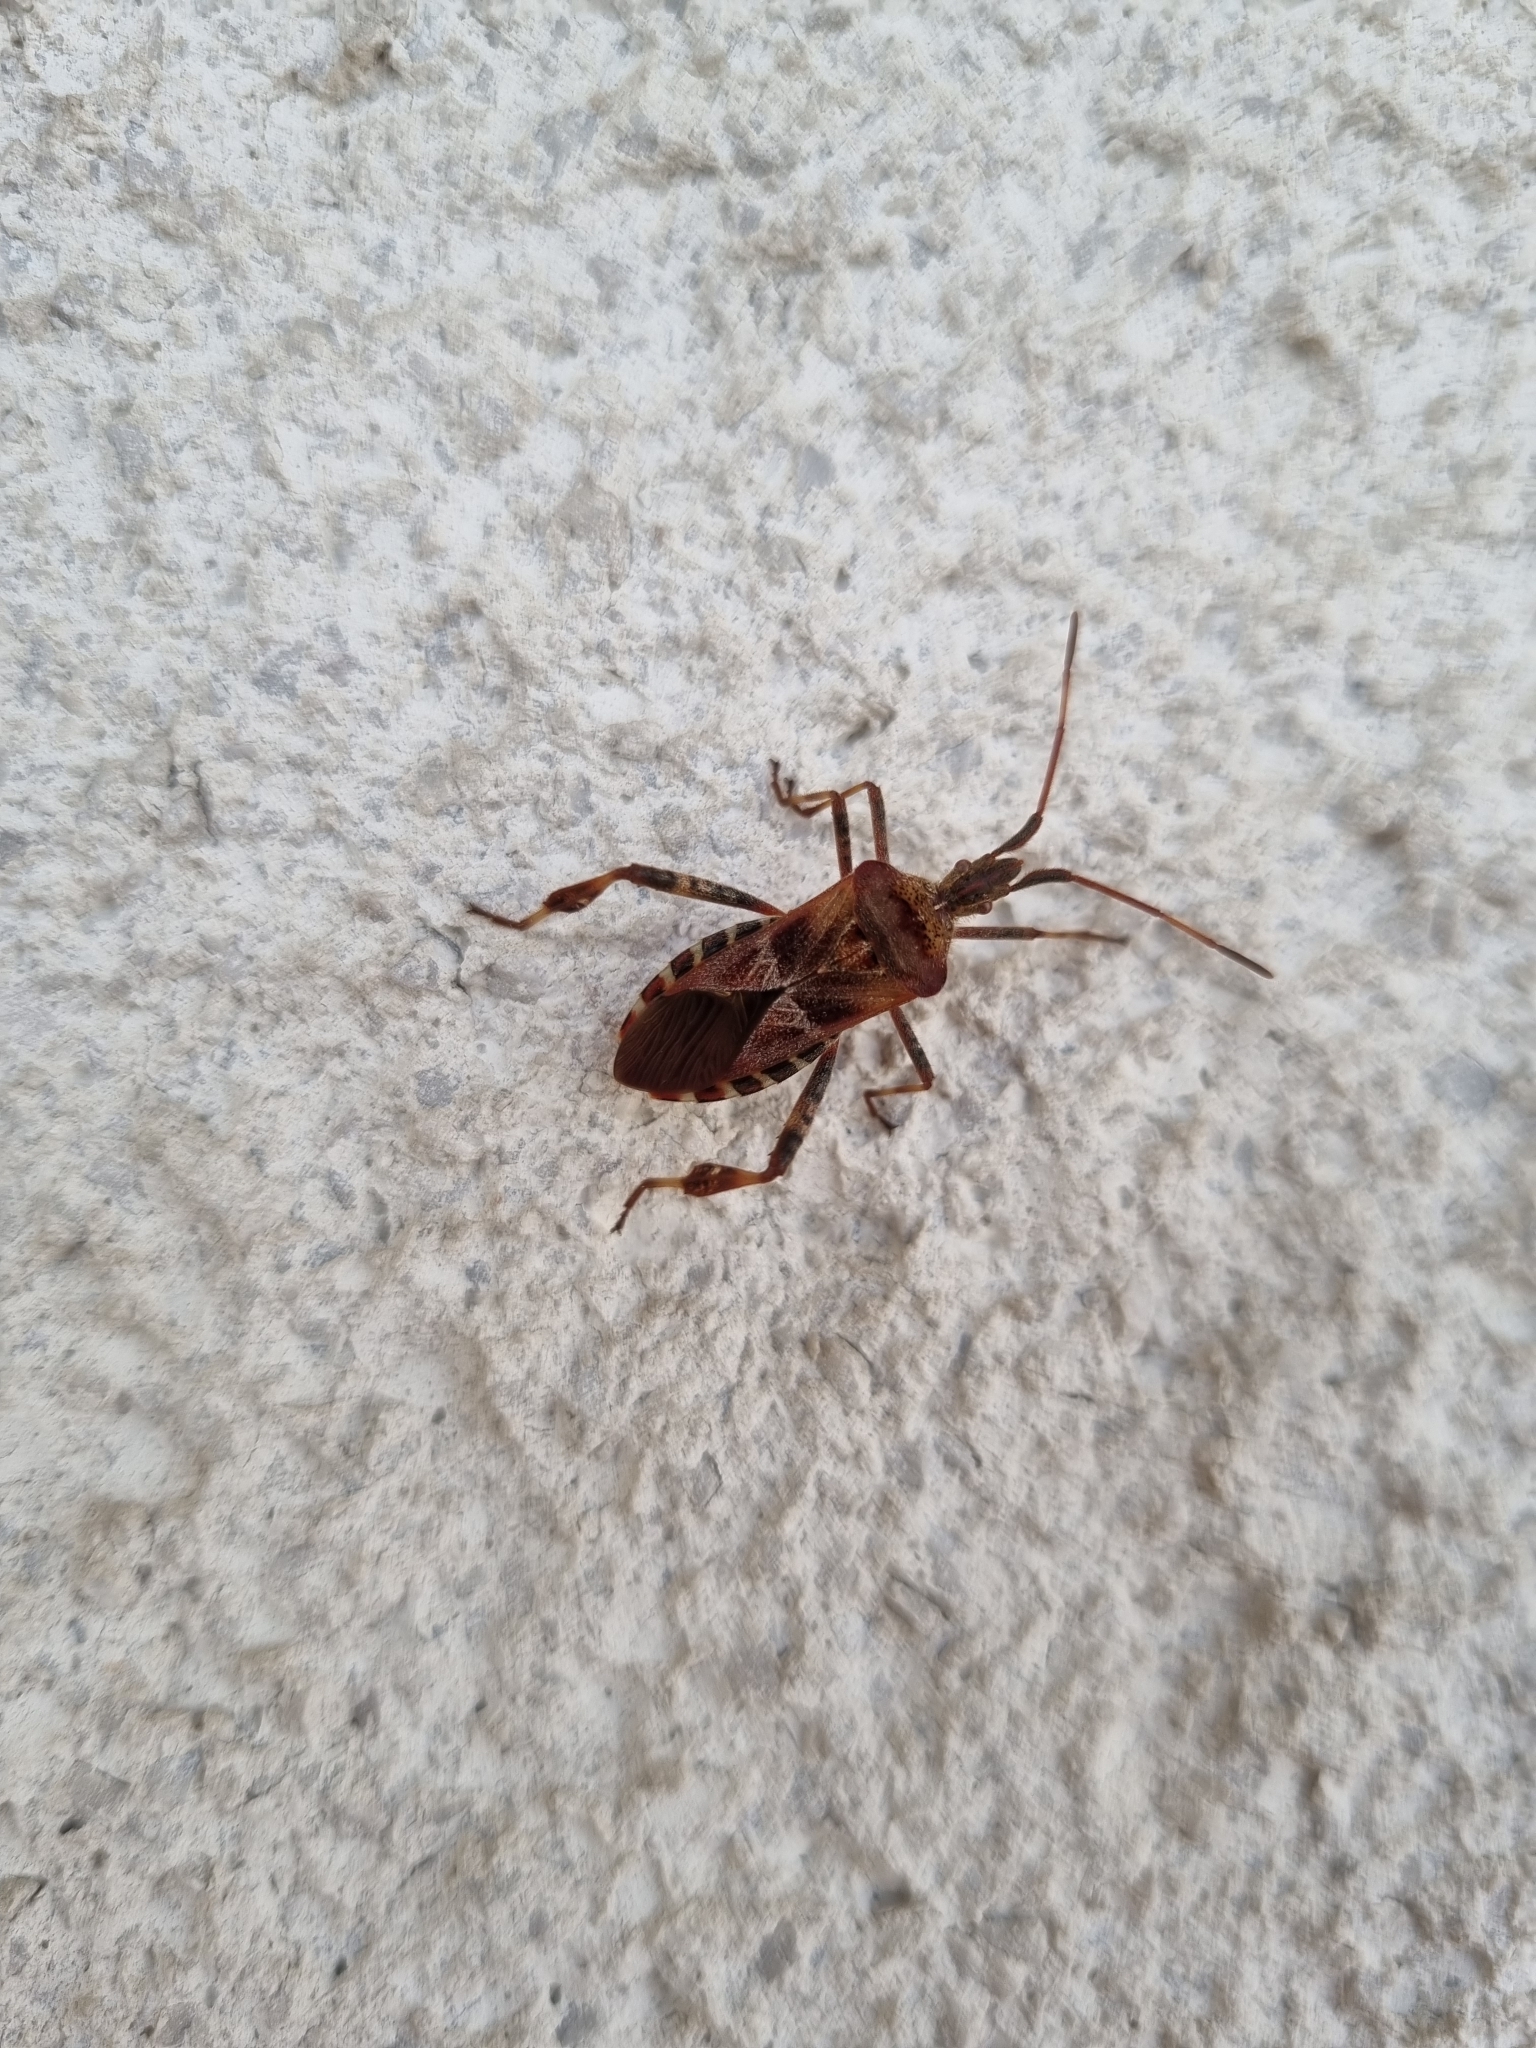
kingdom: Animalia
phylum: Arthropoda
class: Insecta
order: Hemiptera
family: Coreidae
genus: Leptoglossus
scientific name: Leptoglossus occidentalis
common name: Western conifer-seed bug
